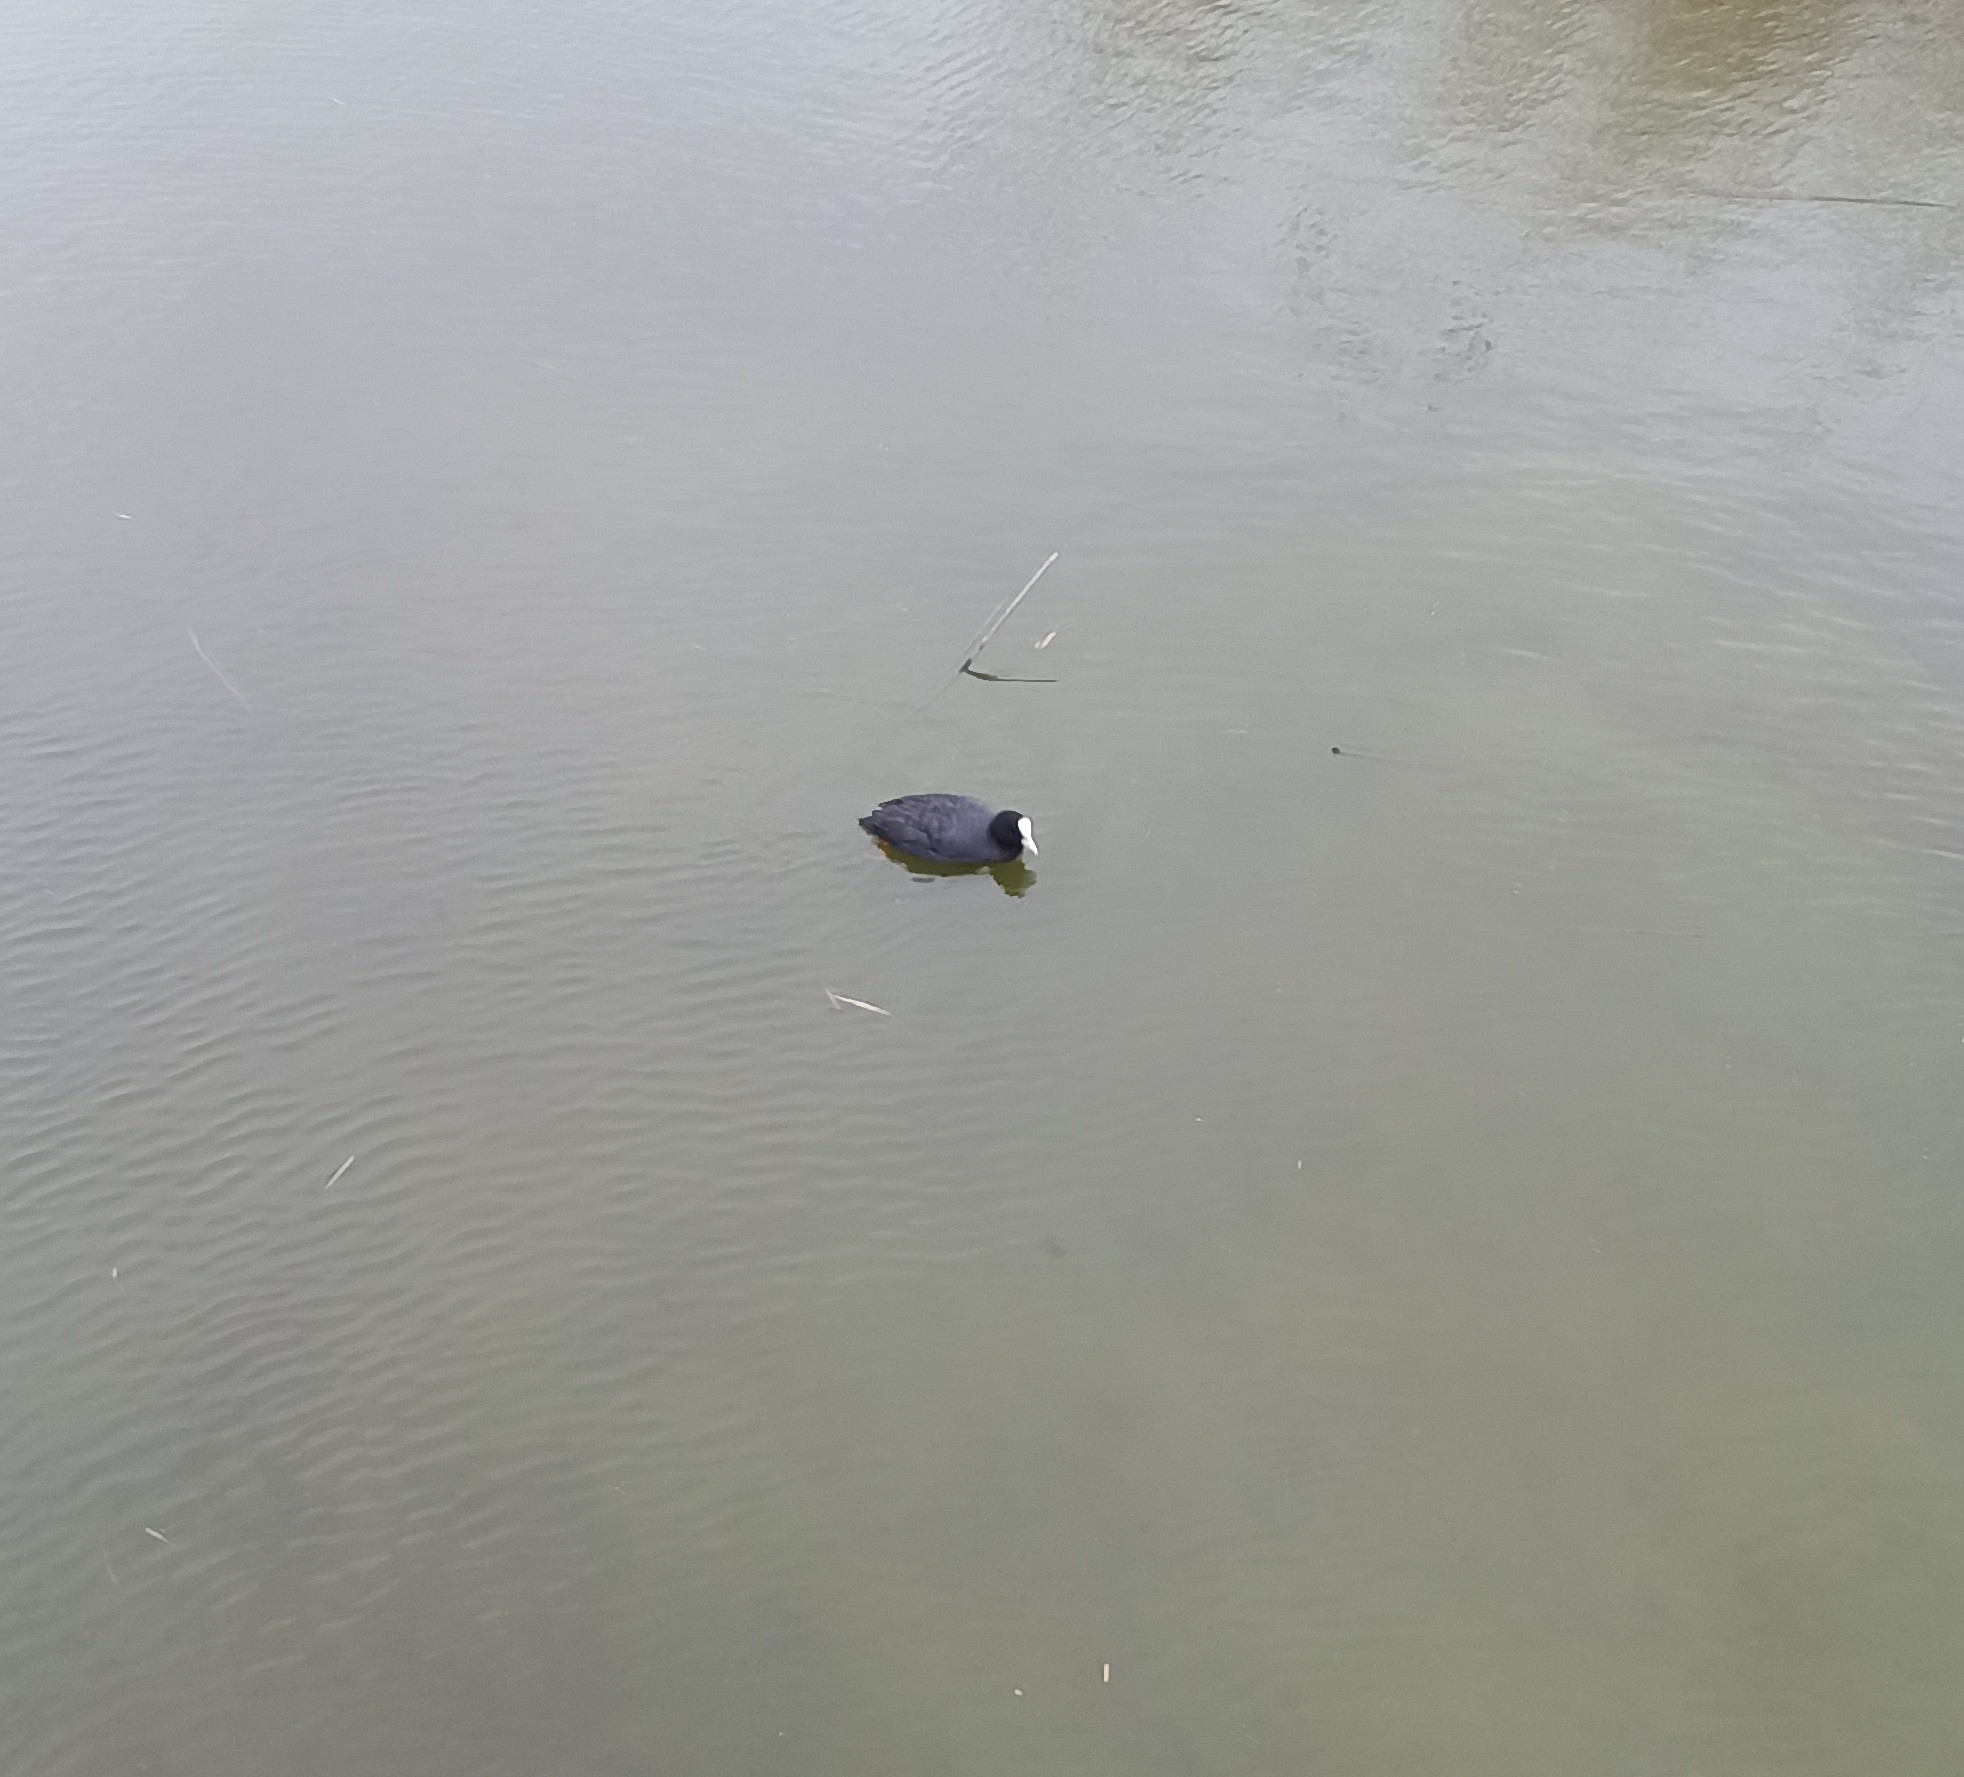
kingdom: Animalia
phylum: Chordata
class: Aves
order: Gruiformes
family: Rallidae
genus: Fulica
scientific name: Fulica atra
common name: Eurasian coot
